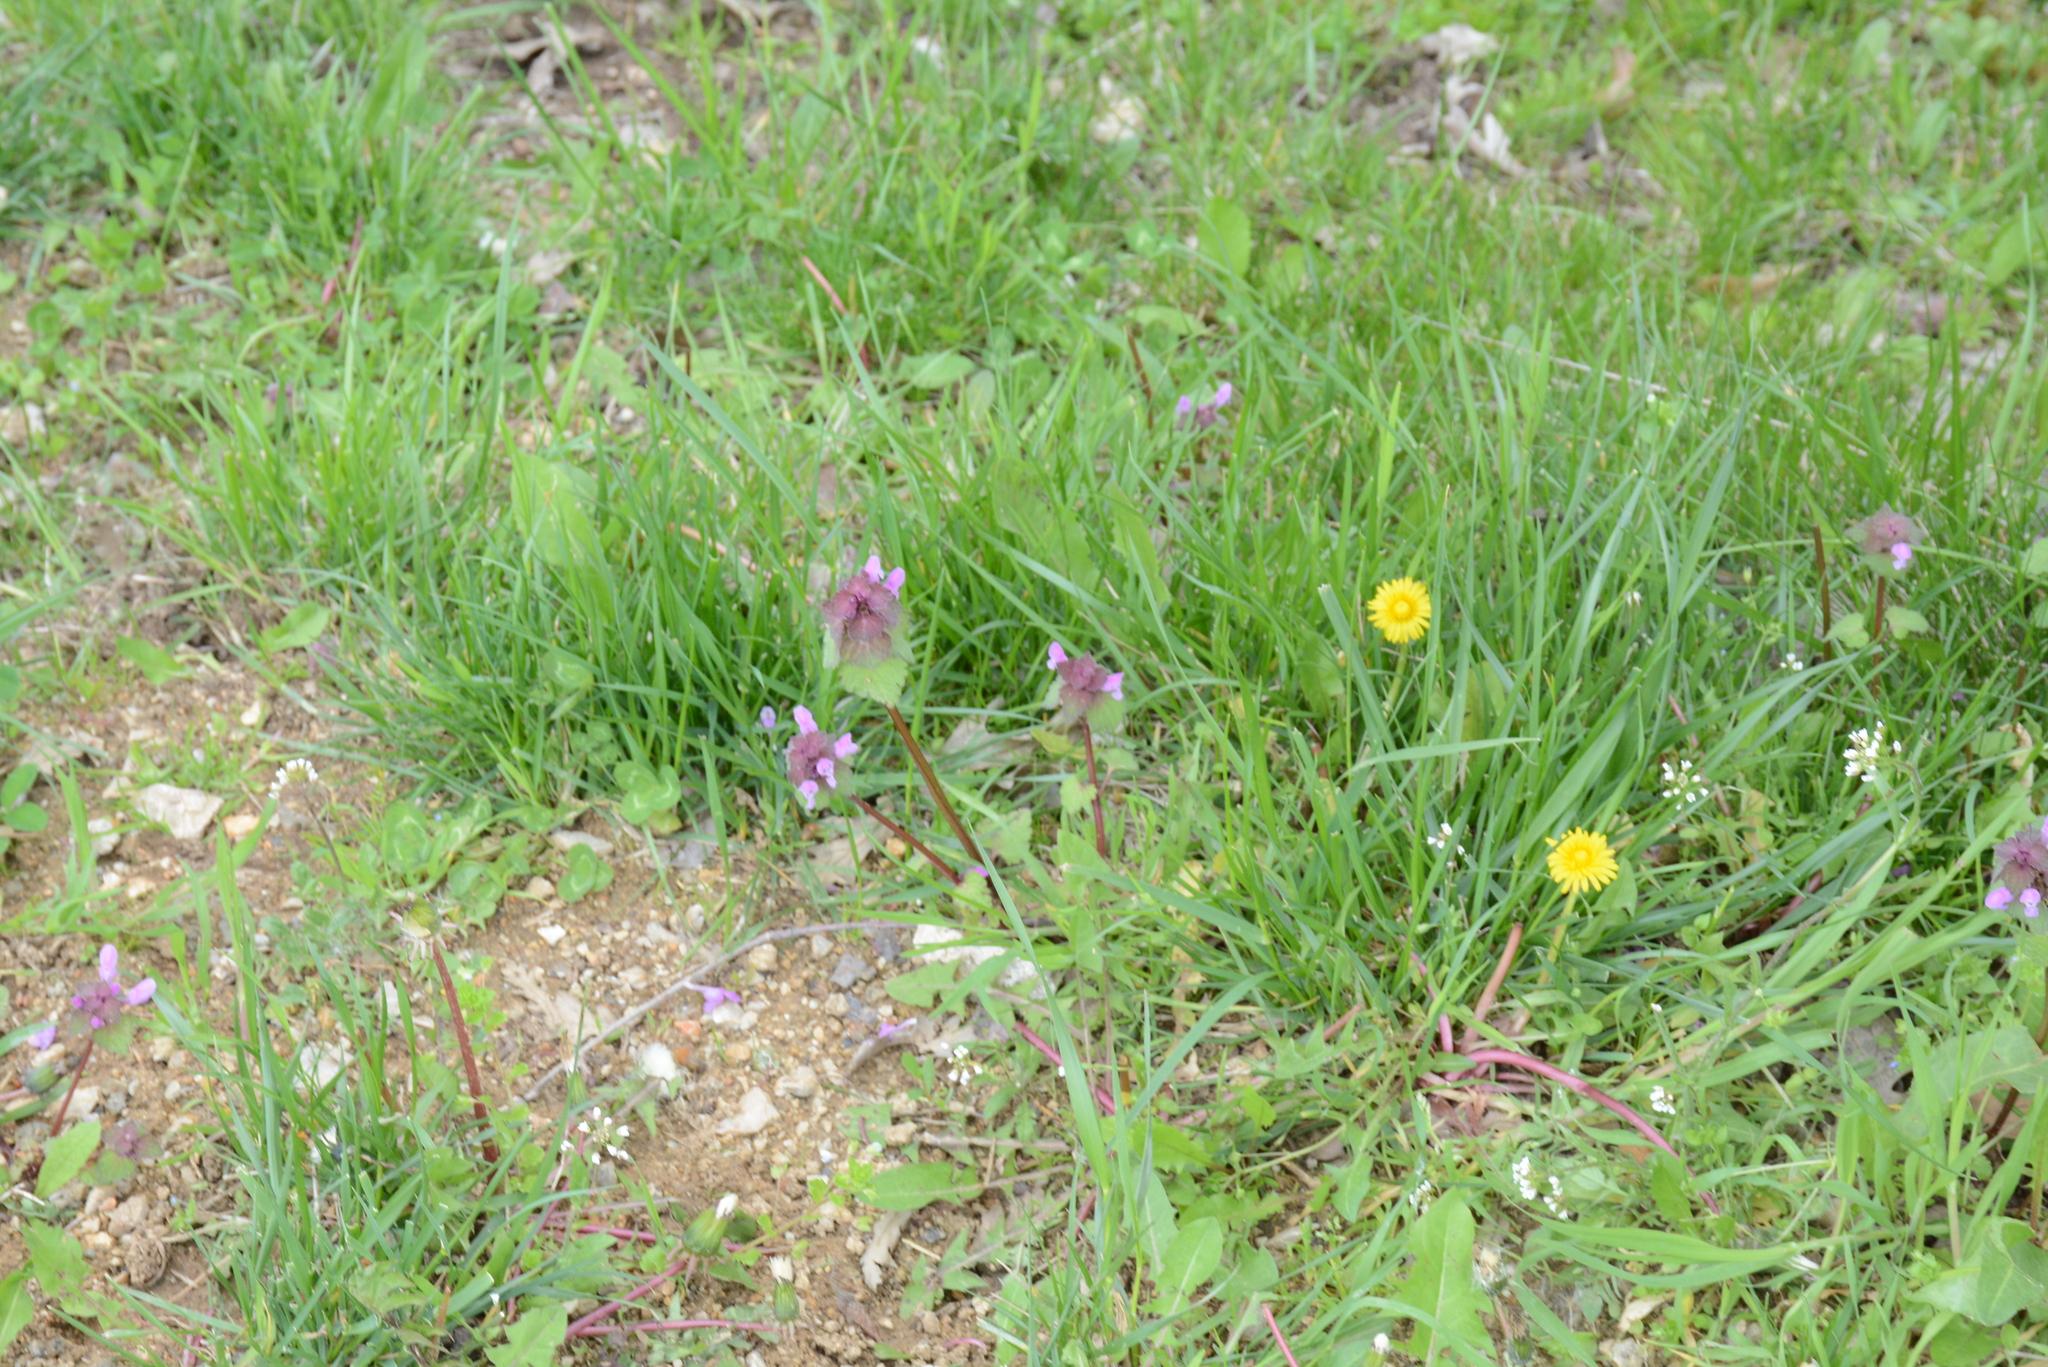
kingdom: Plantae
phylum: Tracheophyta
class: Magnoliopsida
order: Lamiales
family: Lamiaceae
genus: Lamium
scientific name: Lamium purpureum
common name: Red dead-nettle
